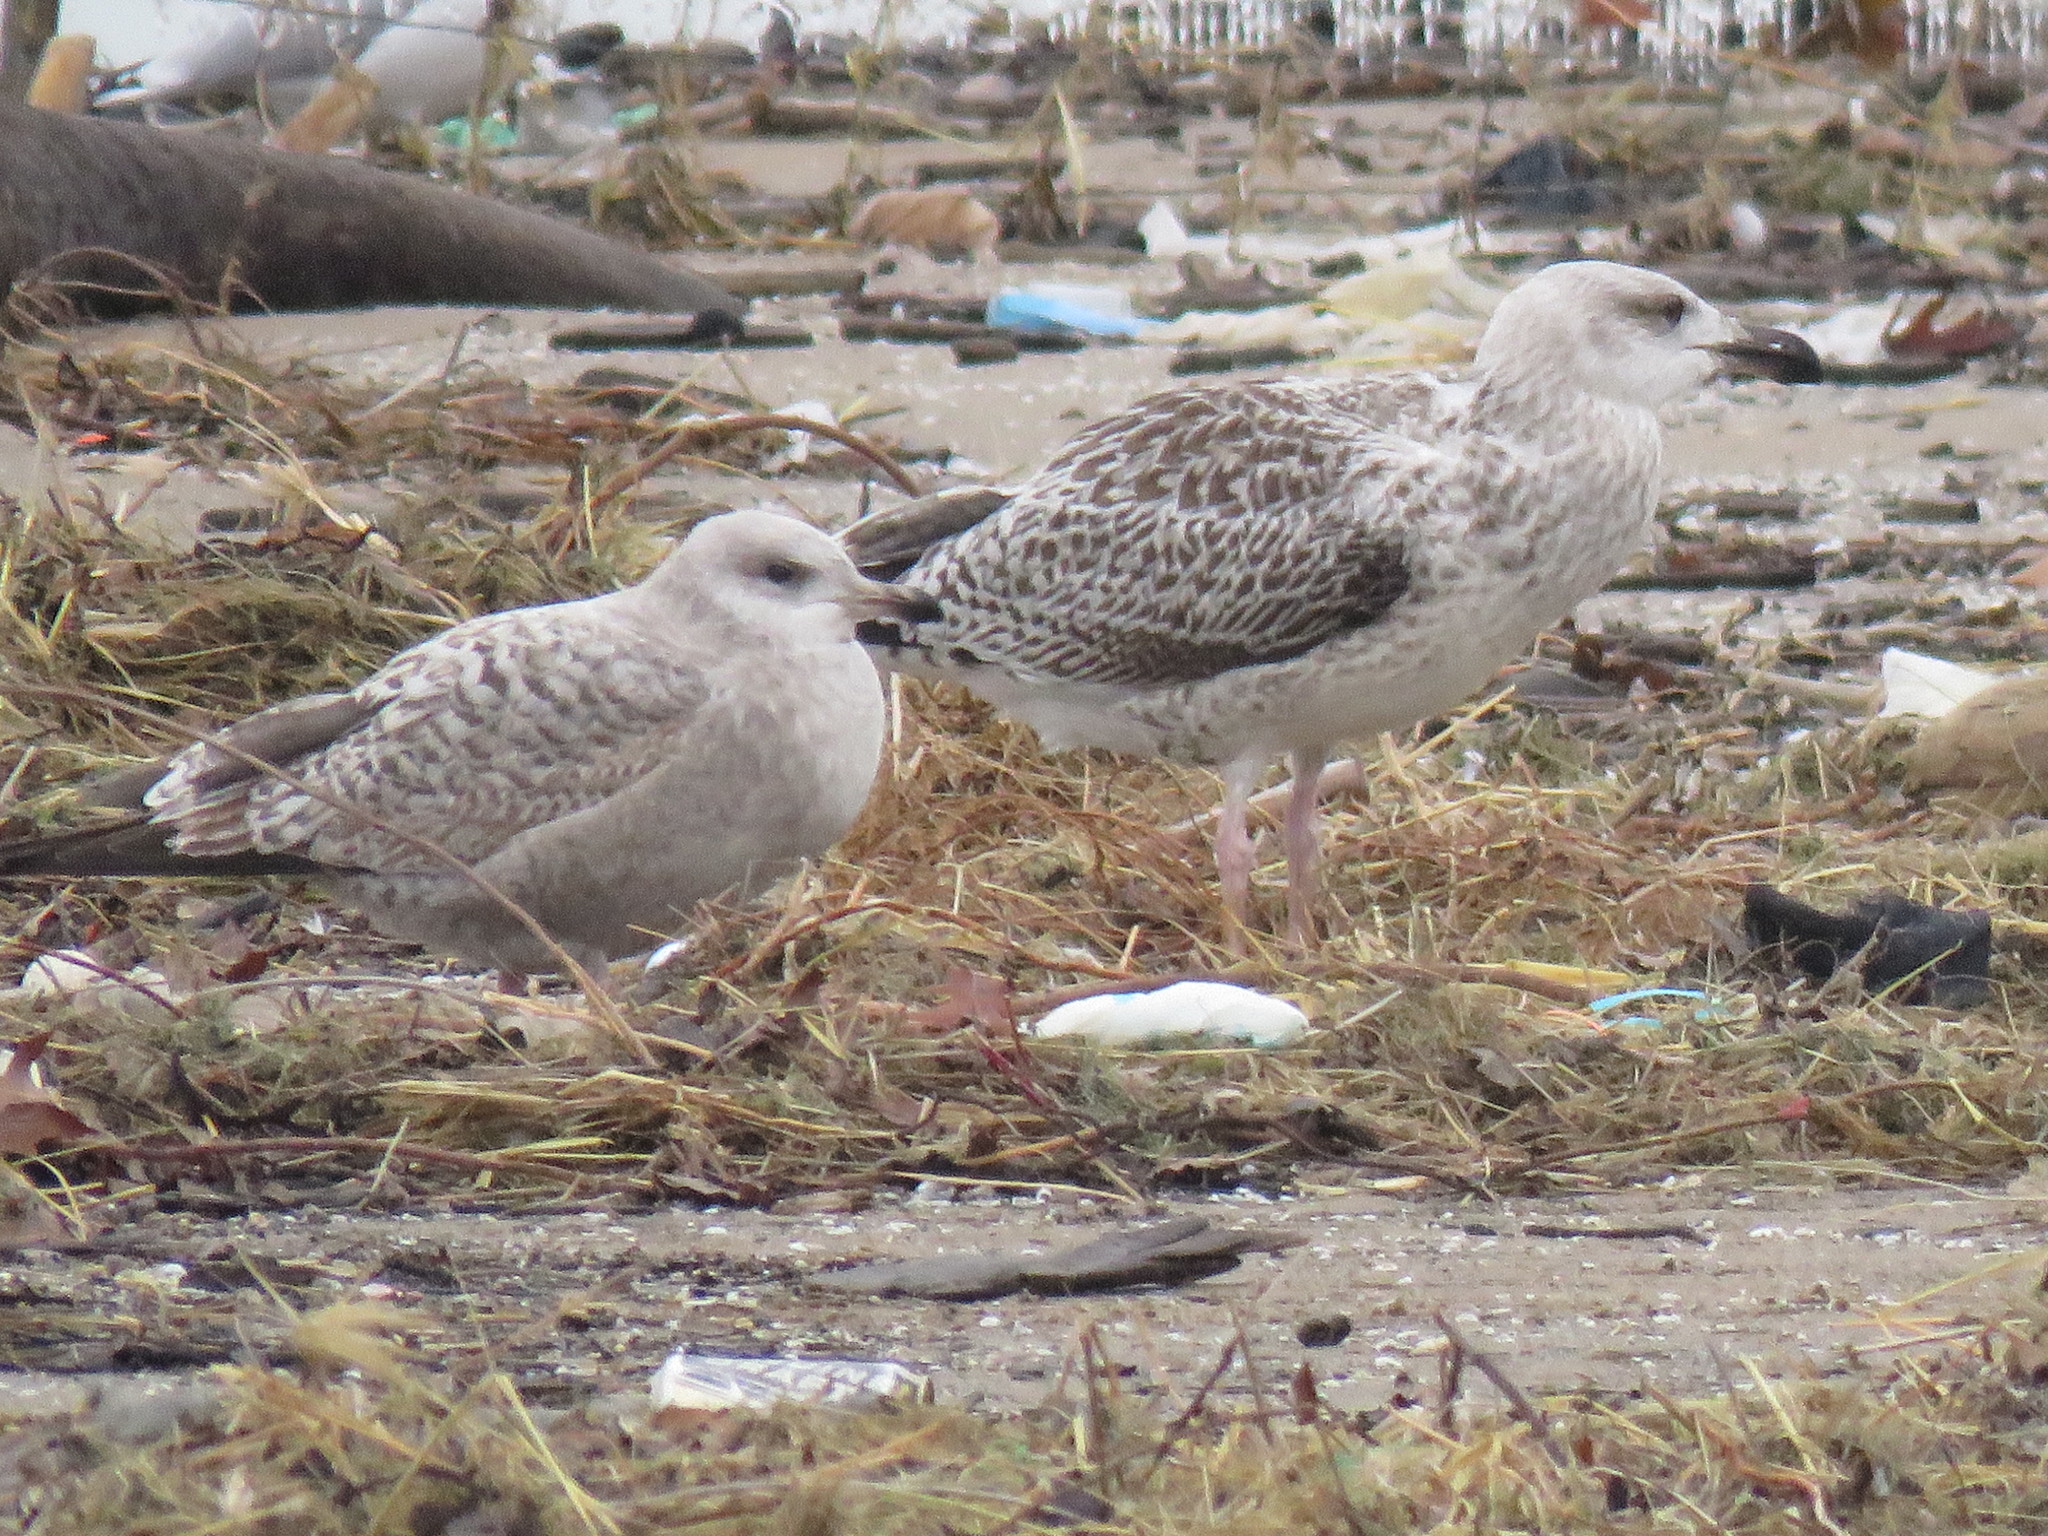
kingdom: Animalia
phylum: Chordata
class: Aves
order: Charadriiformes
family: Laridae
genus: Larus
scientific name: Larus argentatus
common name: Herring gull
